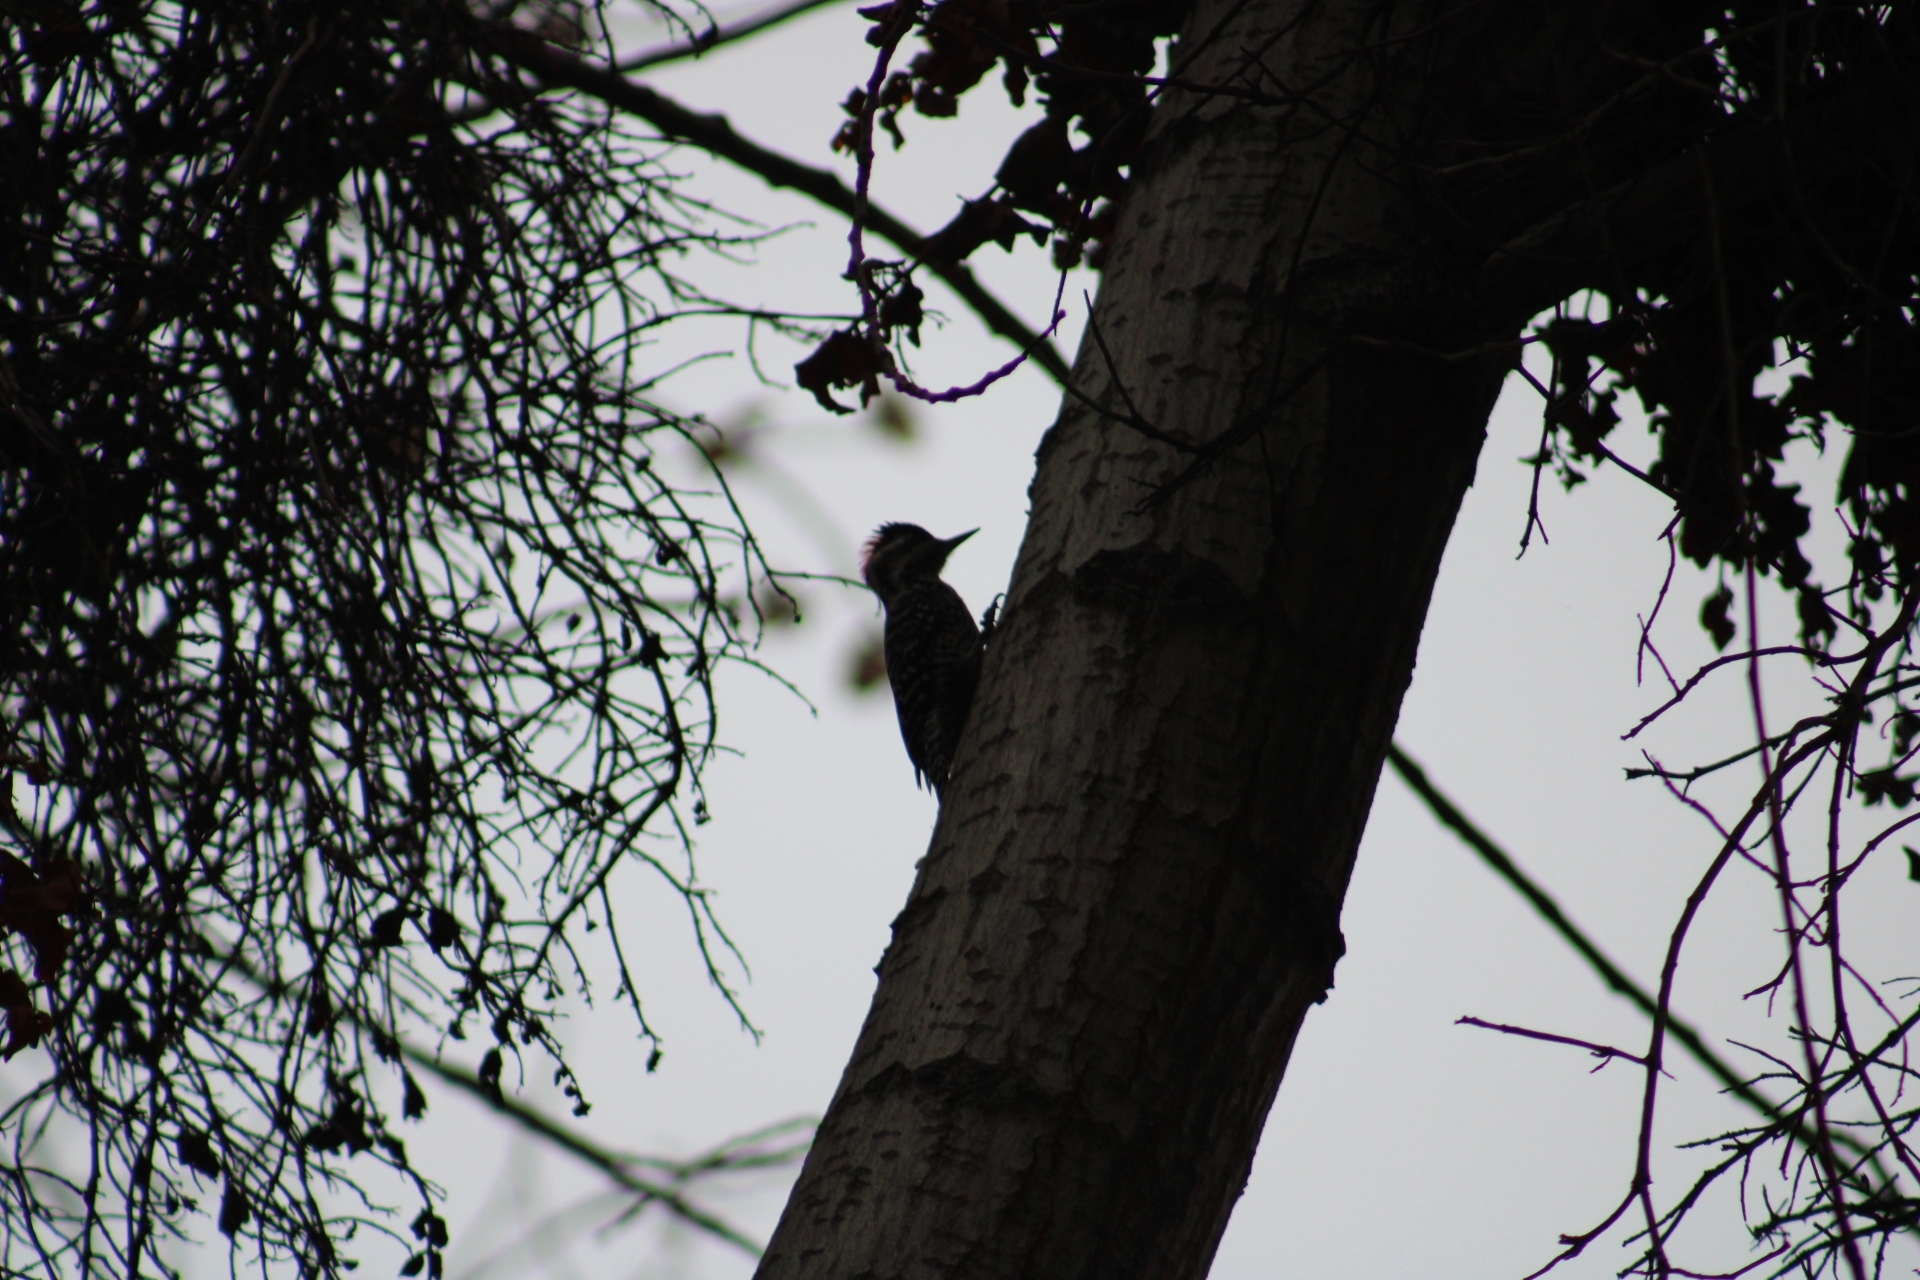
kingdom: Animalia
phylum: Chordata
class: Aves
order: Piciformes
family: Picidae
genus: Veniliornis
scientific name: Veniliornis lignarius
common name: Striped woodpecker
